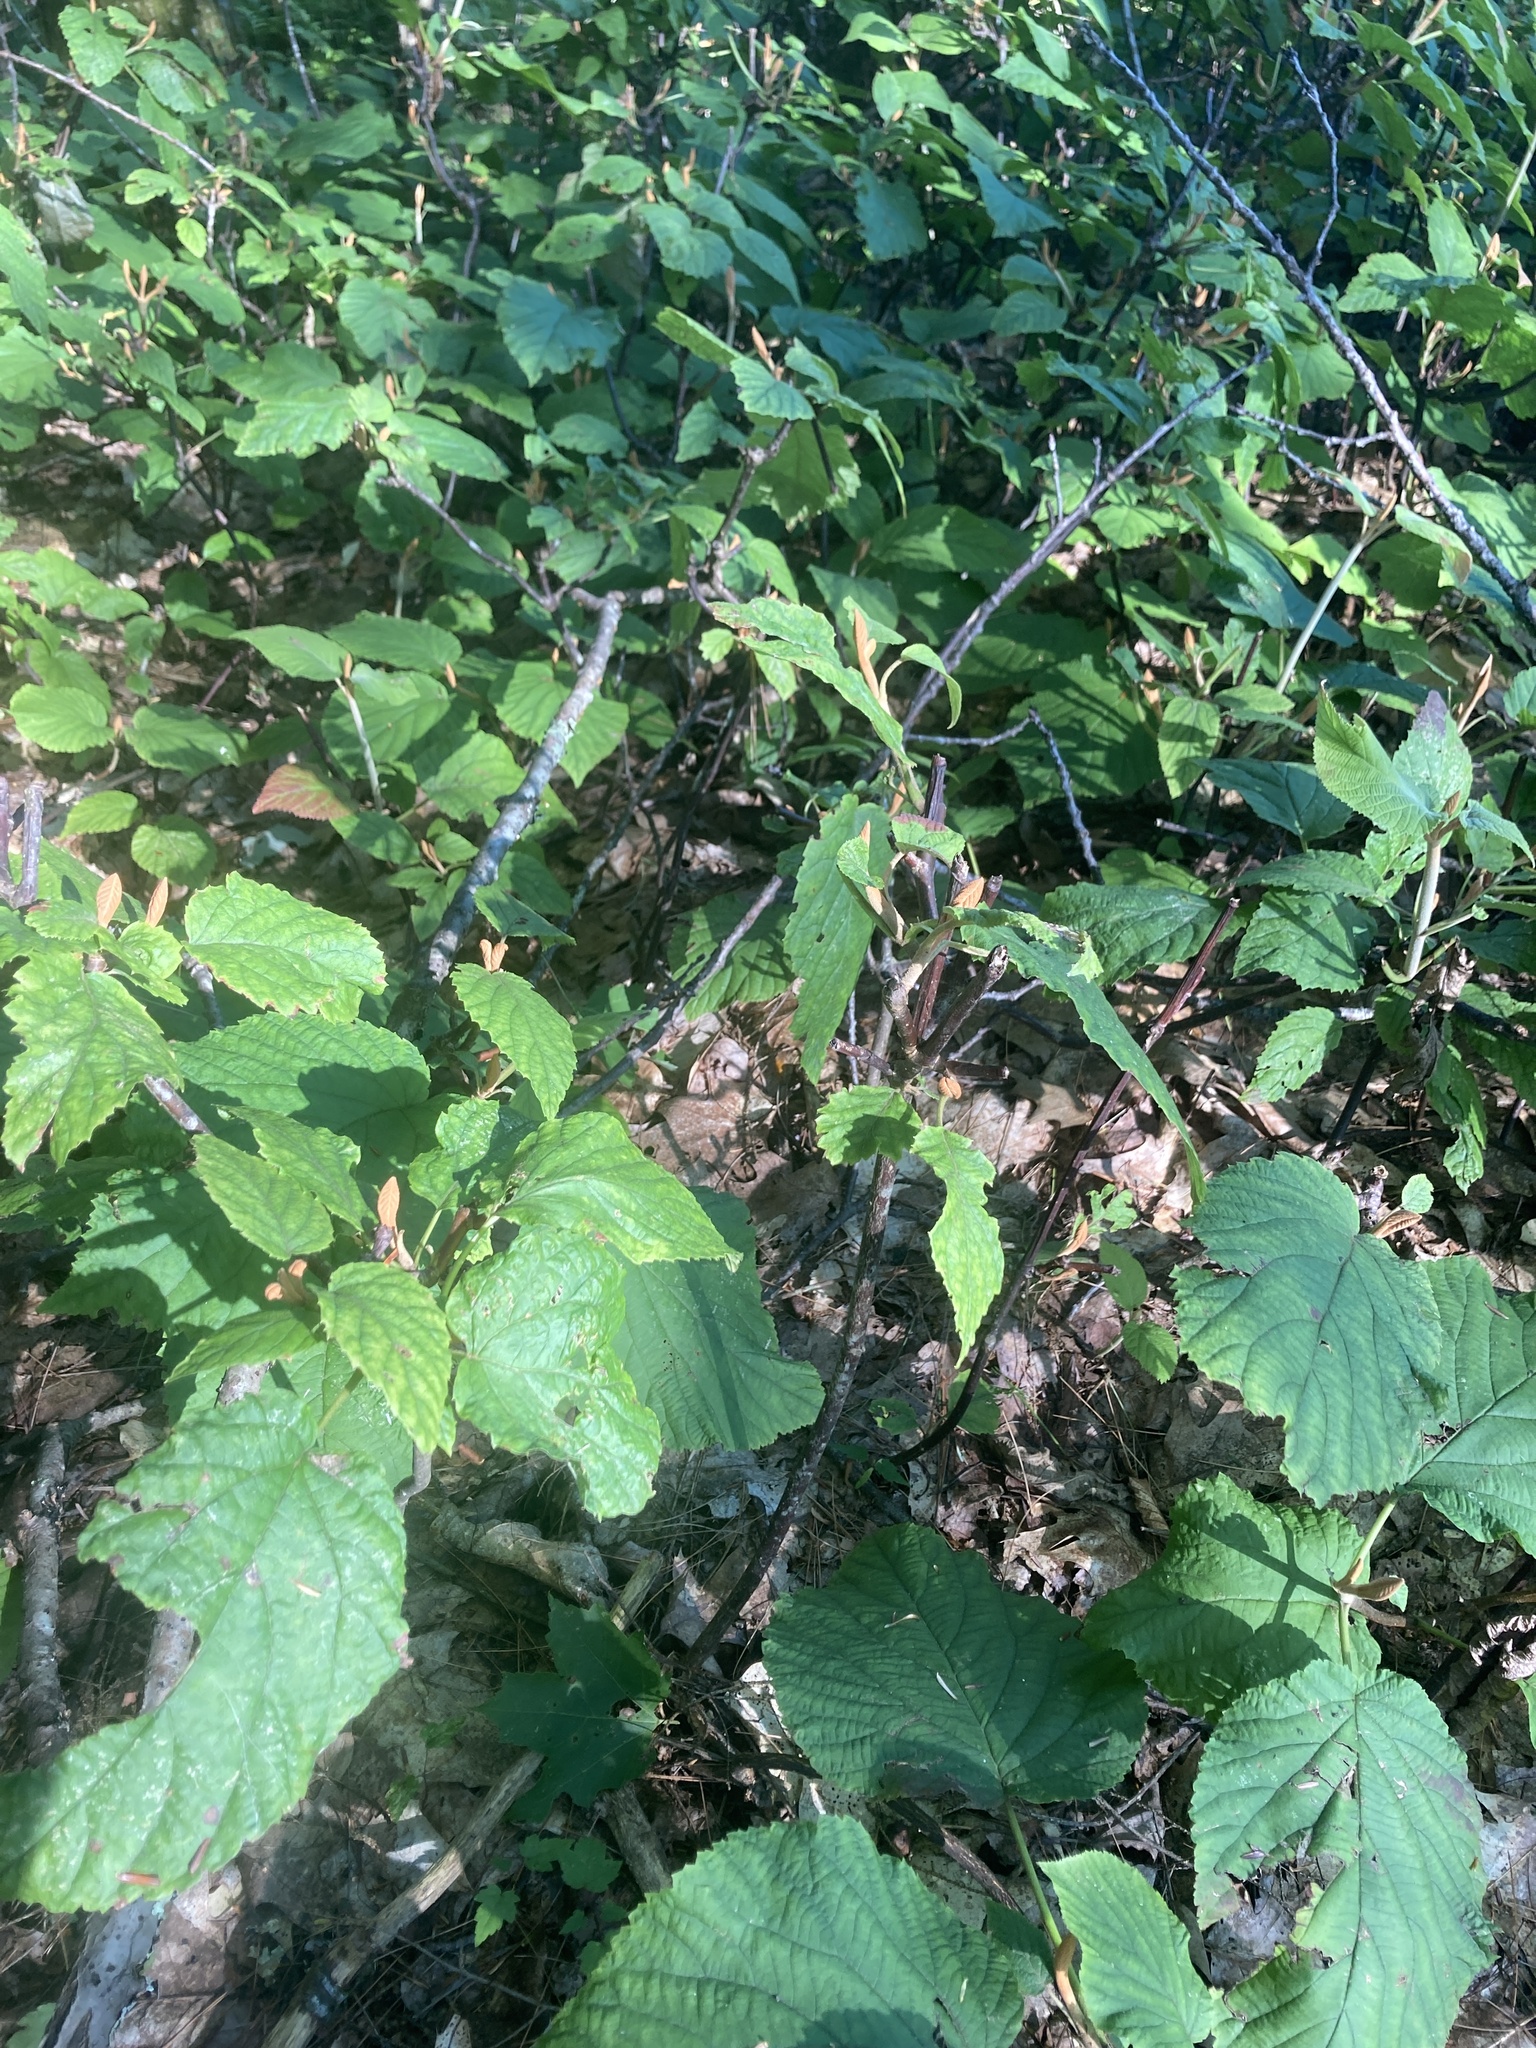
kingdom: Plantae
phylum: Tracheophyta
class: Magnoliopsida
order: Dipsacales
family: Viburnaceae
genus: Viburnum
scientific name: Viburnum lantanoides
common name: Hobblebush
